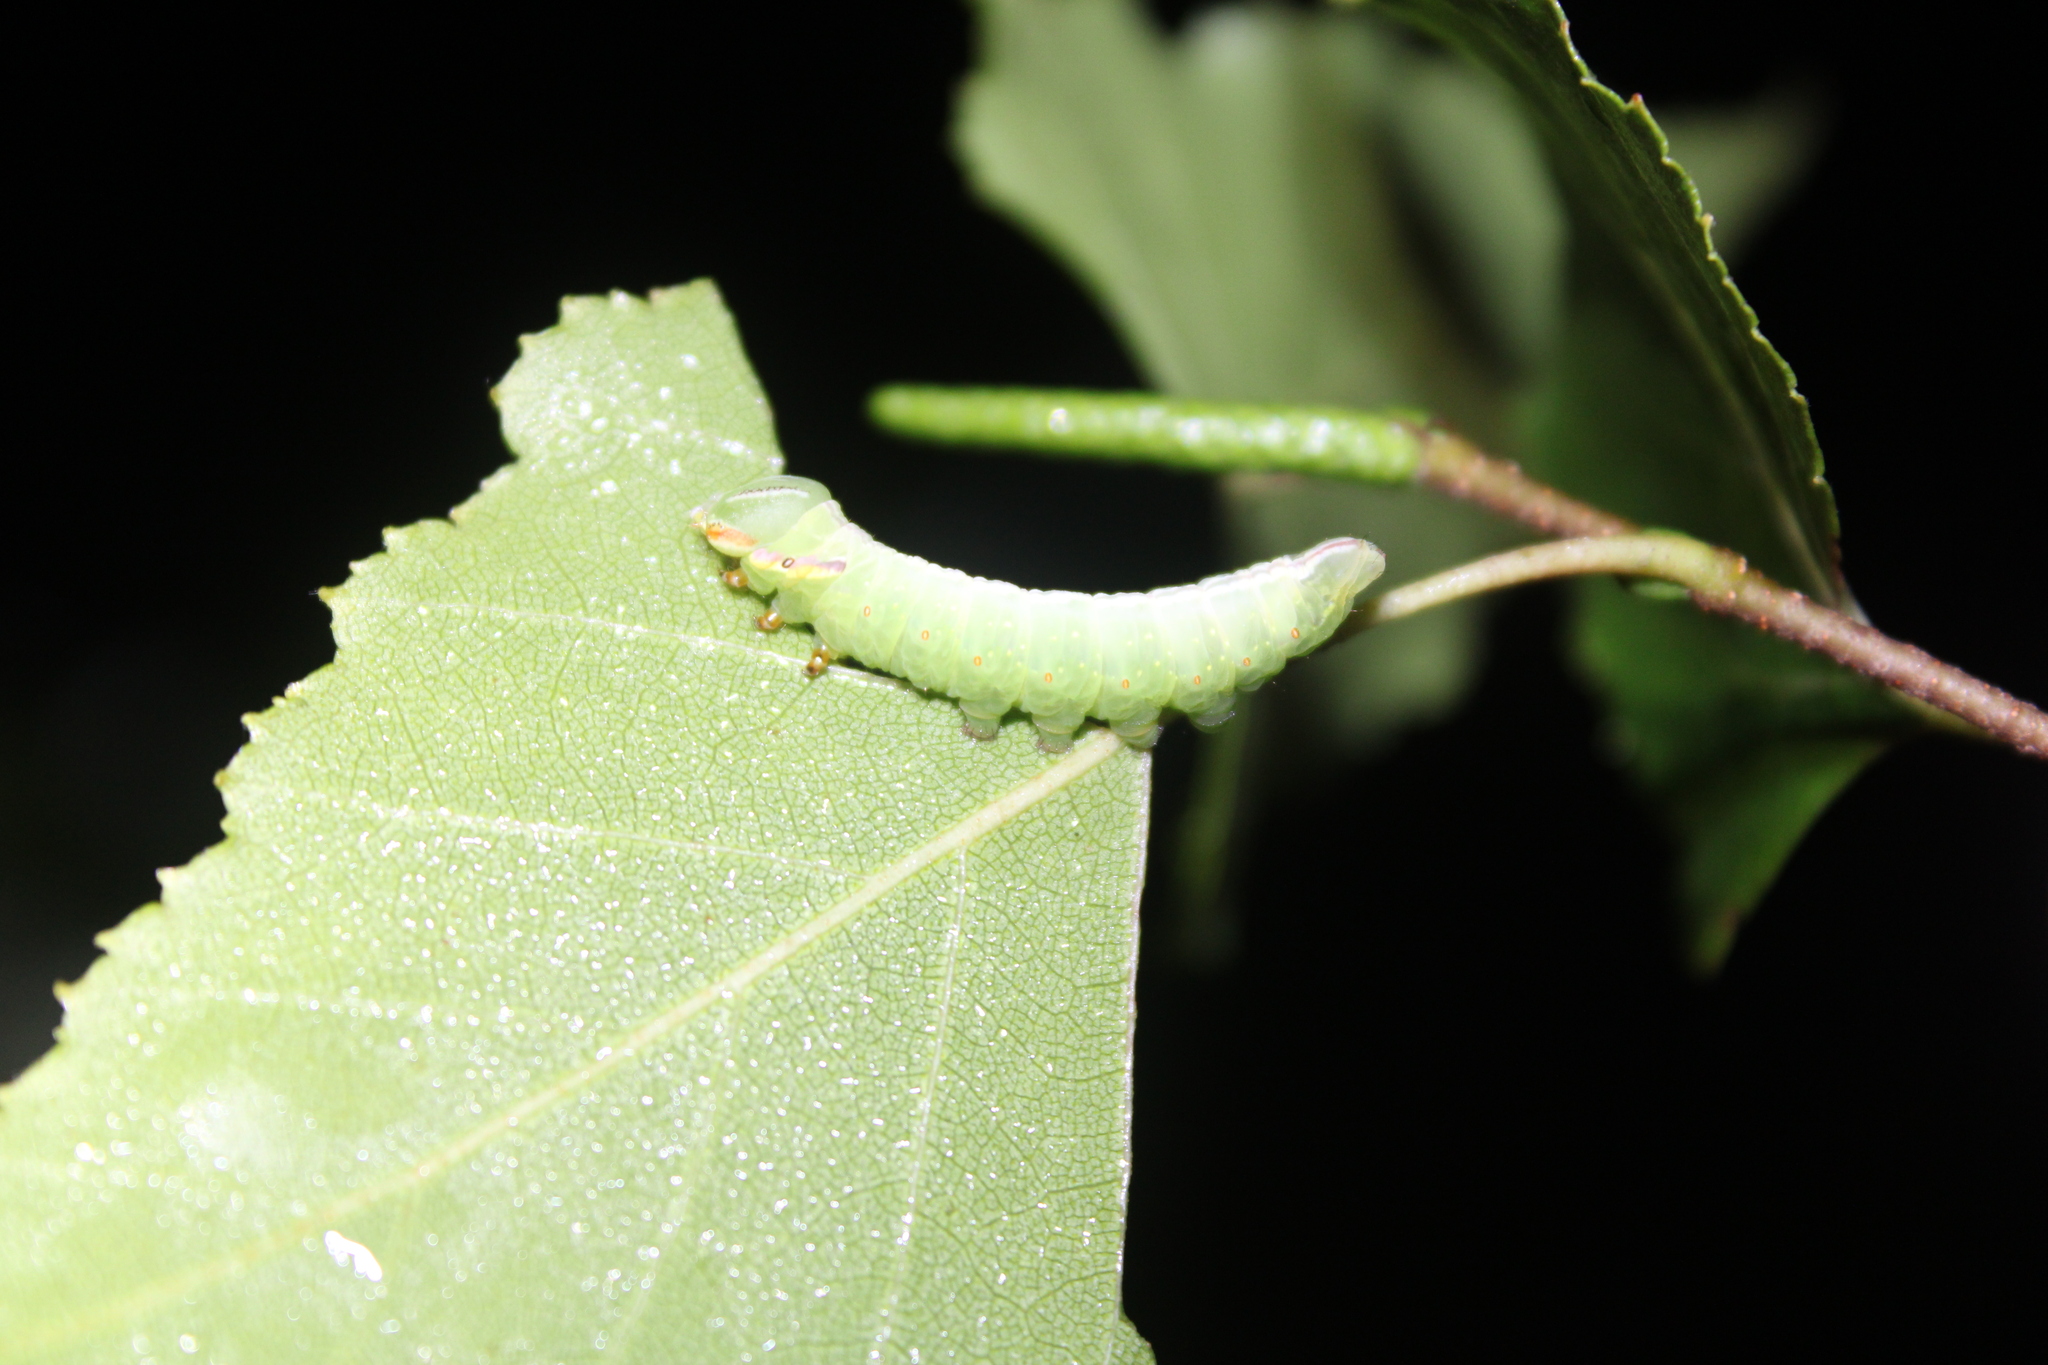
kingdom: Animalia
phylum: Arthropoda
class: Insecta
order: Lepidoptera
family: Notodontidae
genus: Peridea
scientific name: Peridea ferruginea
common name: Chocolate prominent
